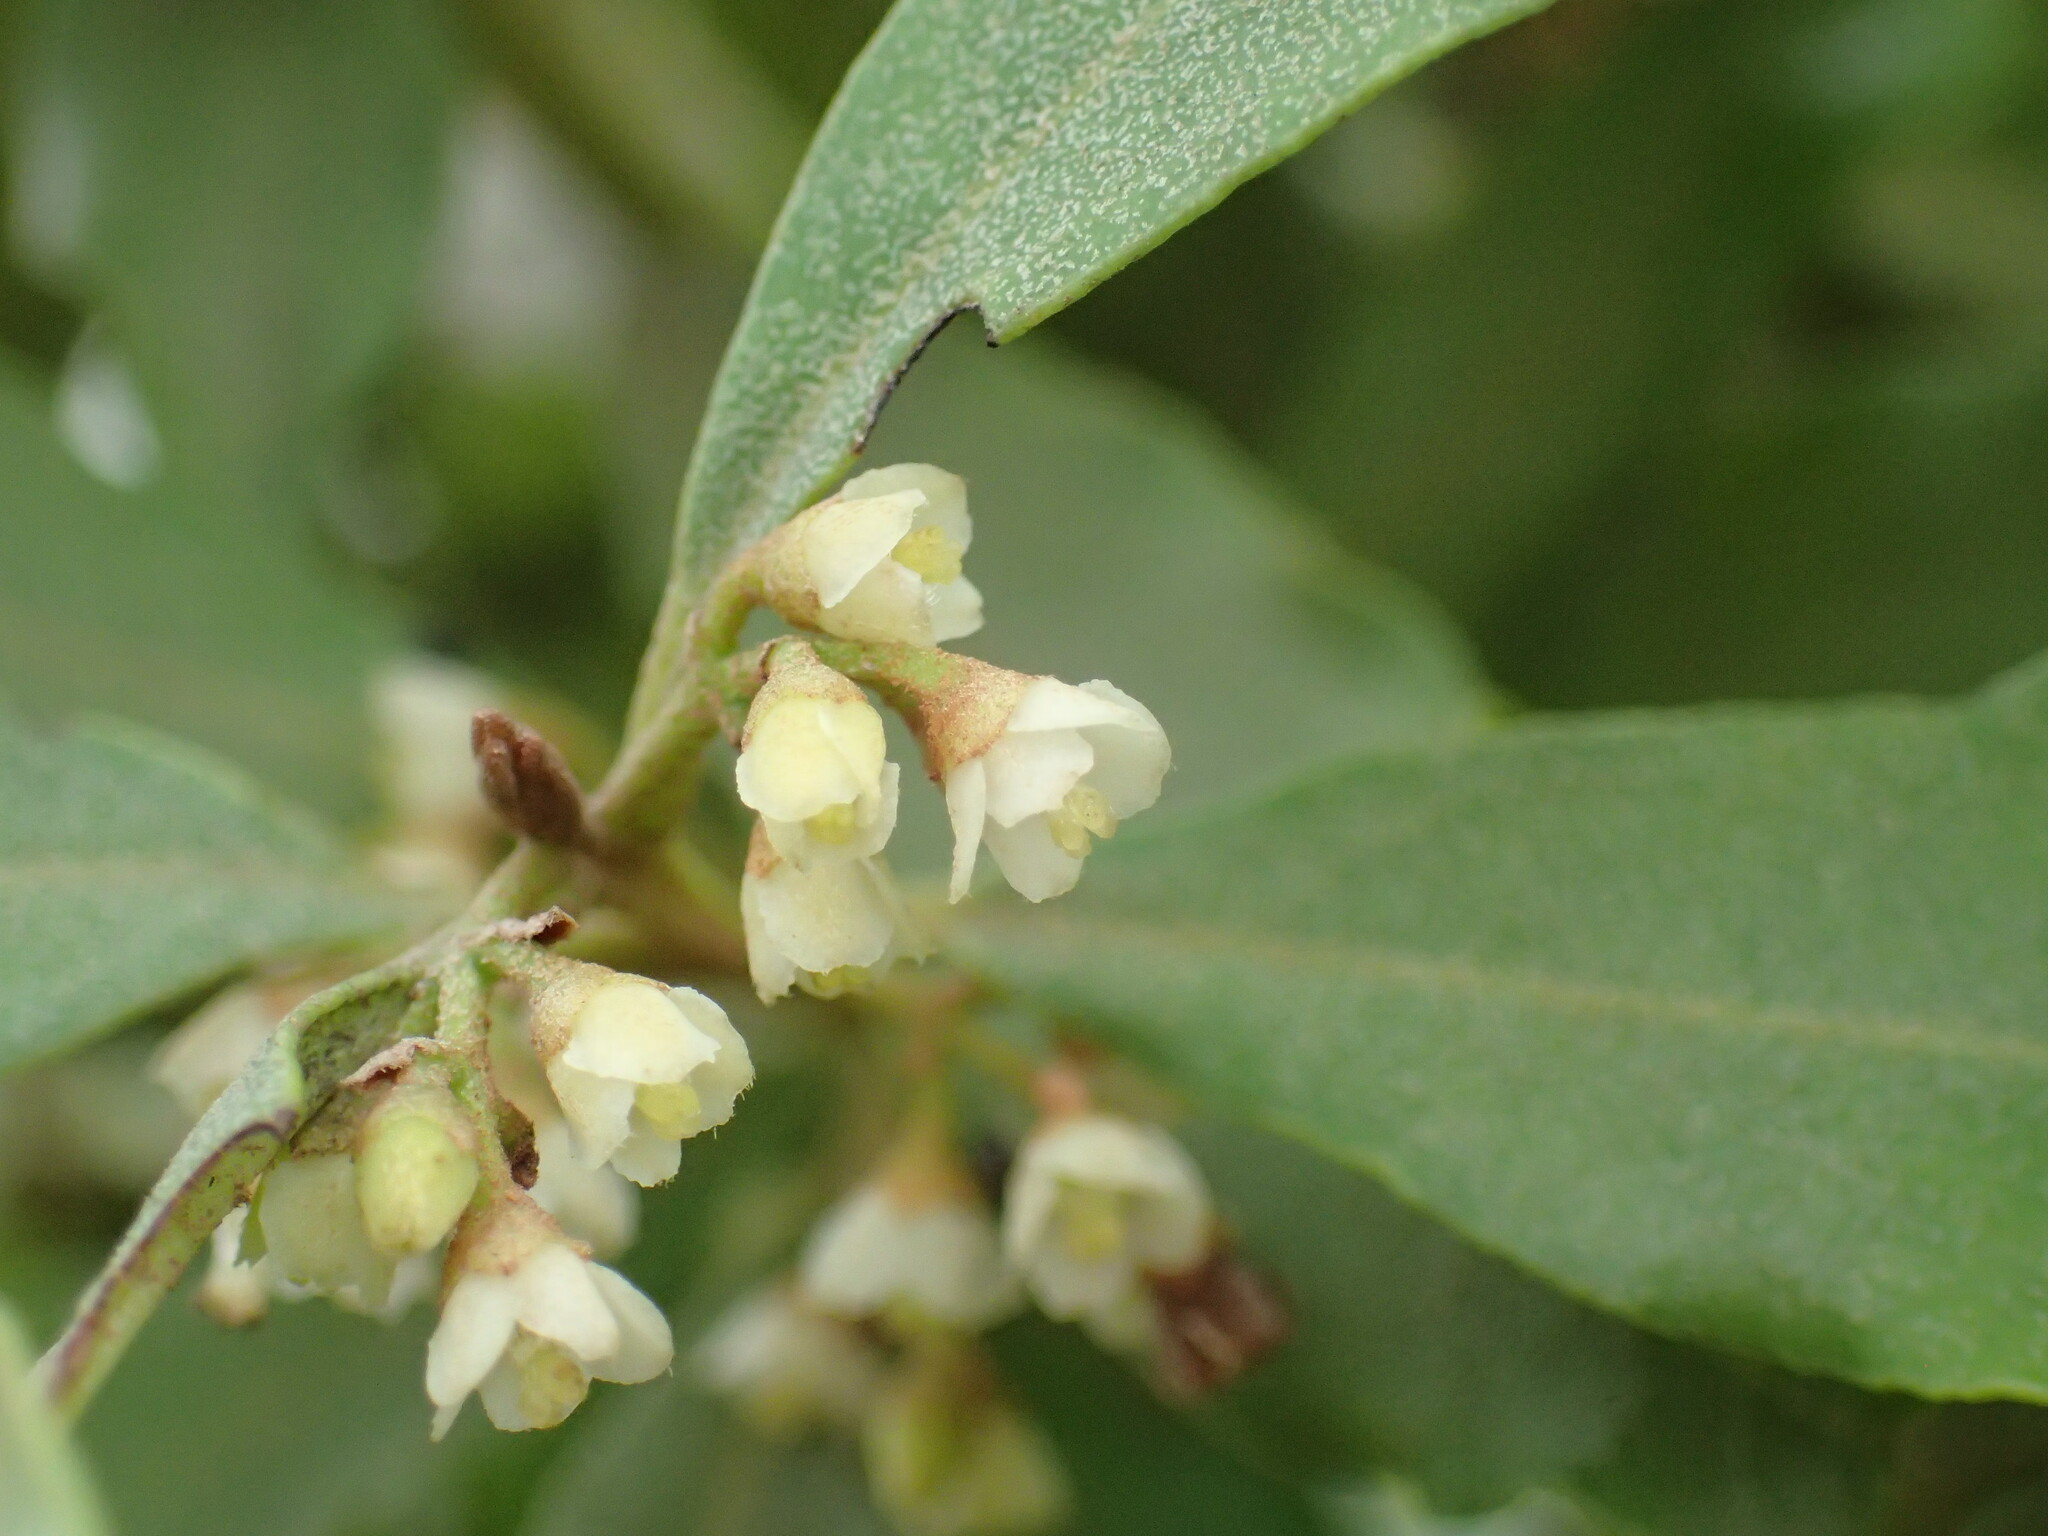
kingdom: Plantae
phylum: Tracheophyta
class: Magnoliopsida
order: Ericales
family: Ebenaceae
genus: Euclea
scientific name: Euclea undulata
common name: Small-leaved guarri
